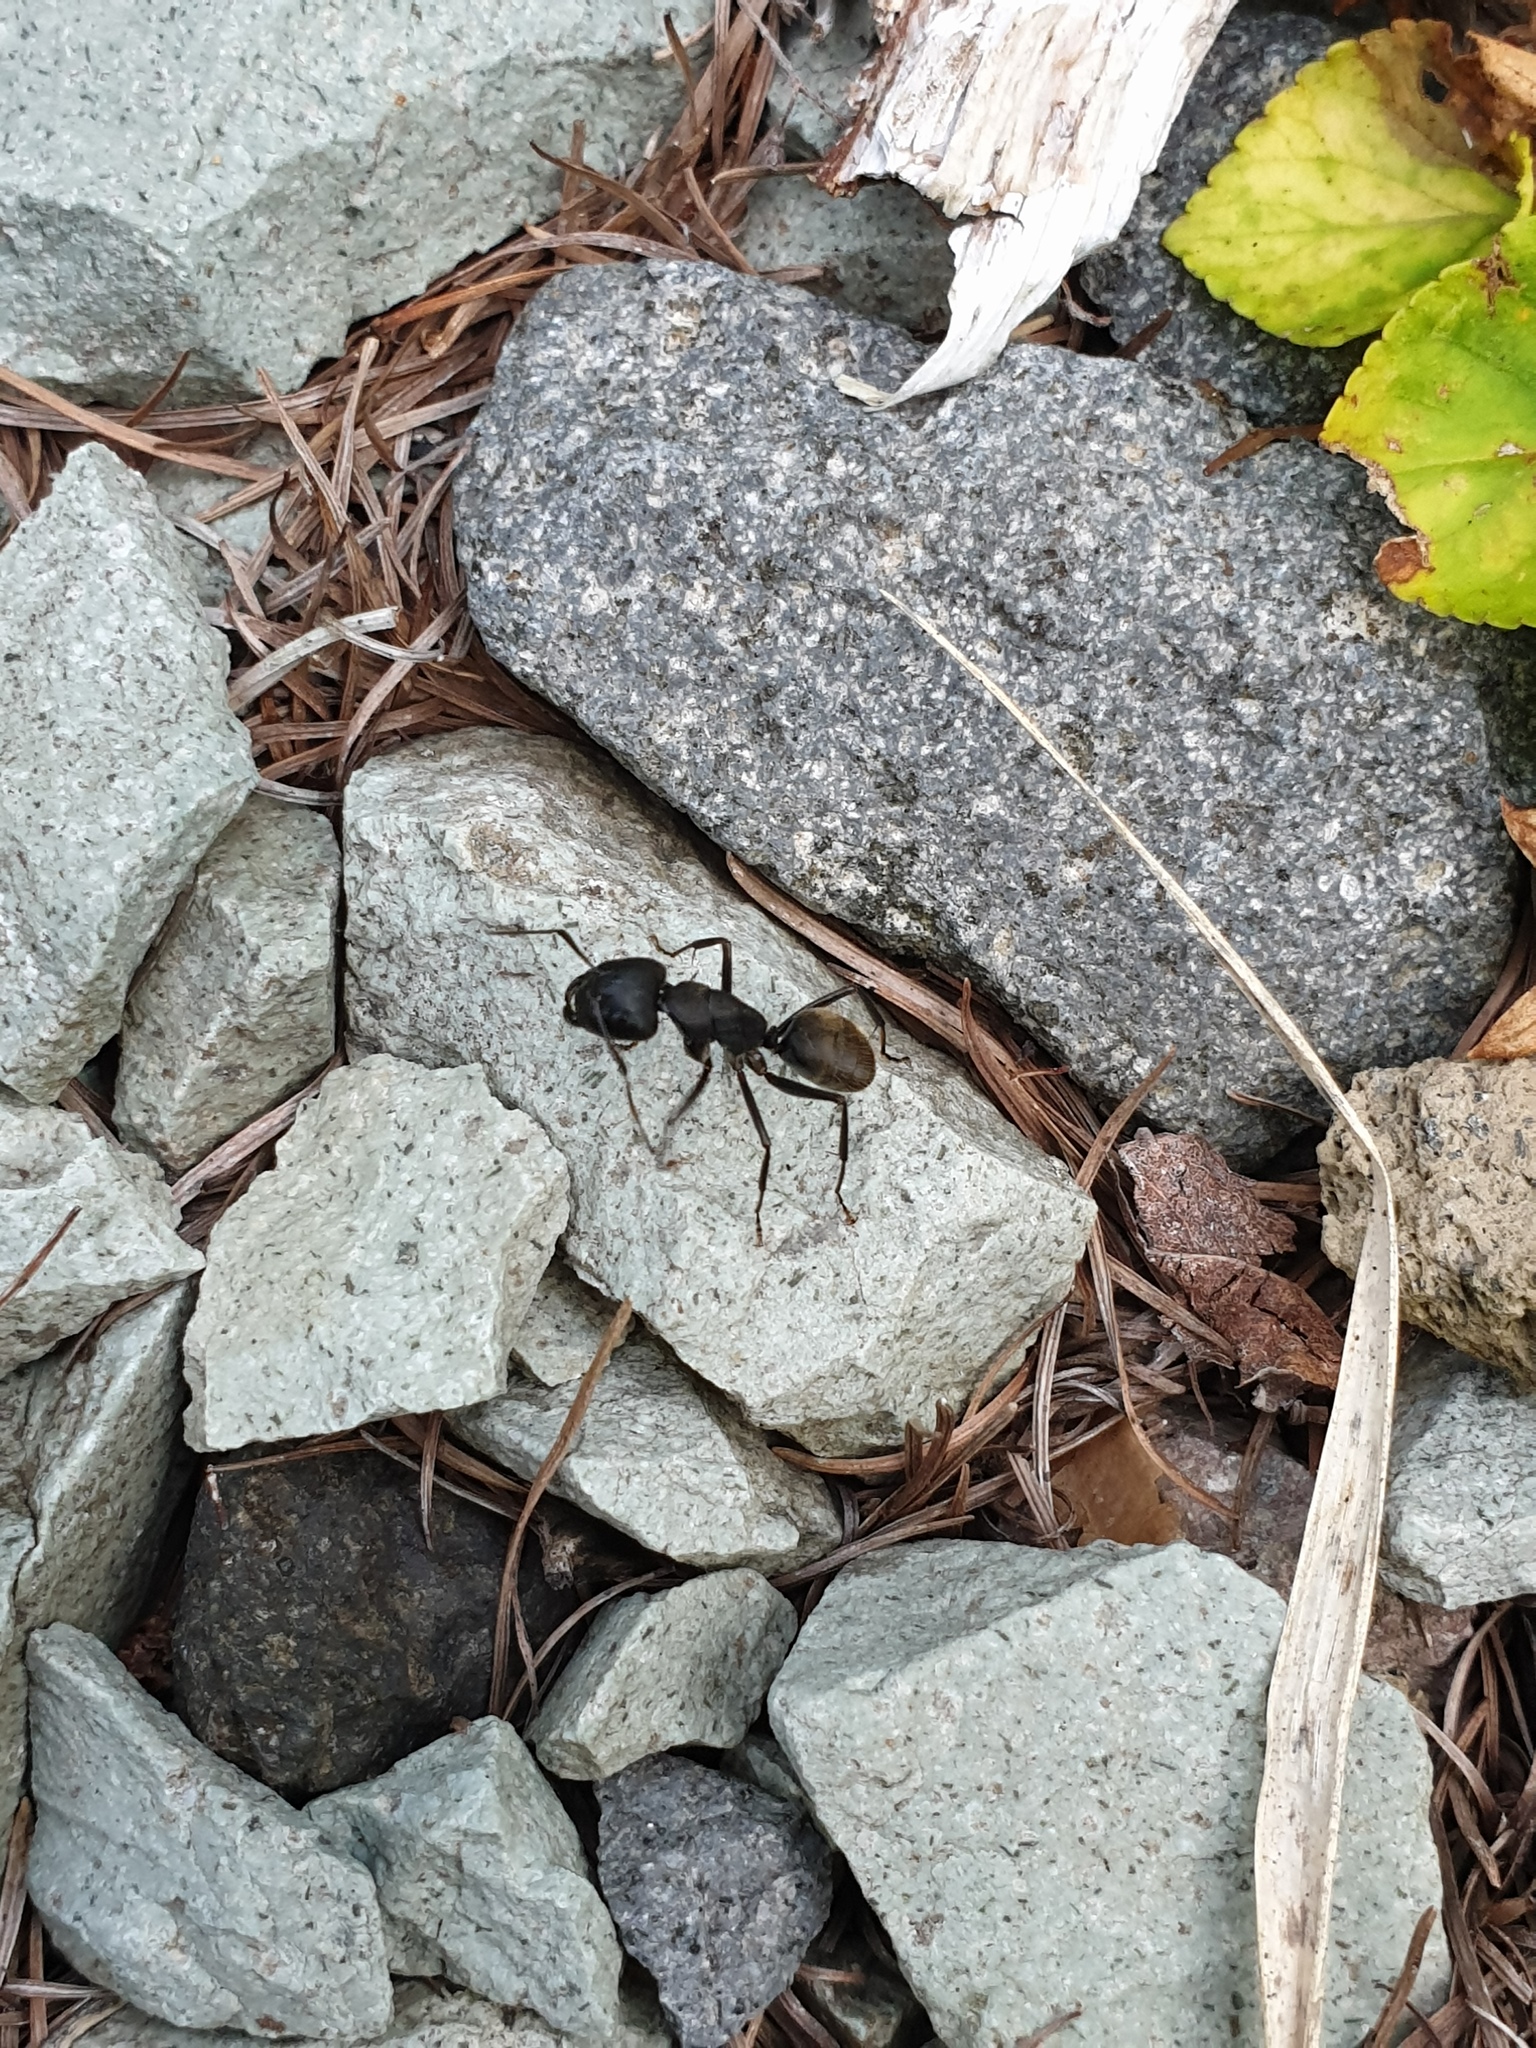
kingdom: Animalia
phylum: Arthropoda
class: Insecta
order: Hymenoptera
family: Formicidae
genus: Camponotus
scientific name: Camponotus japonicus
